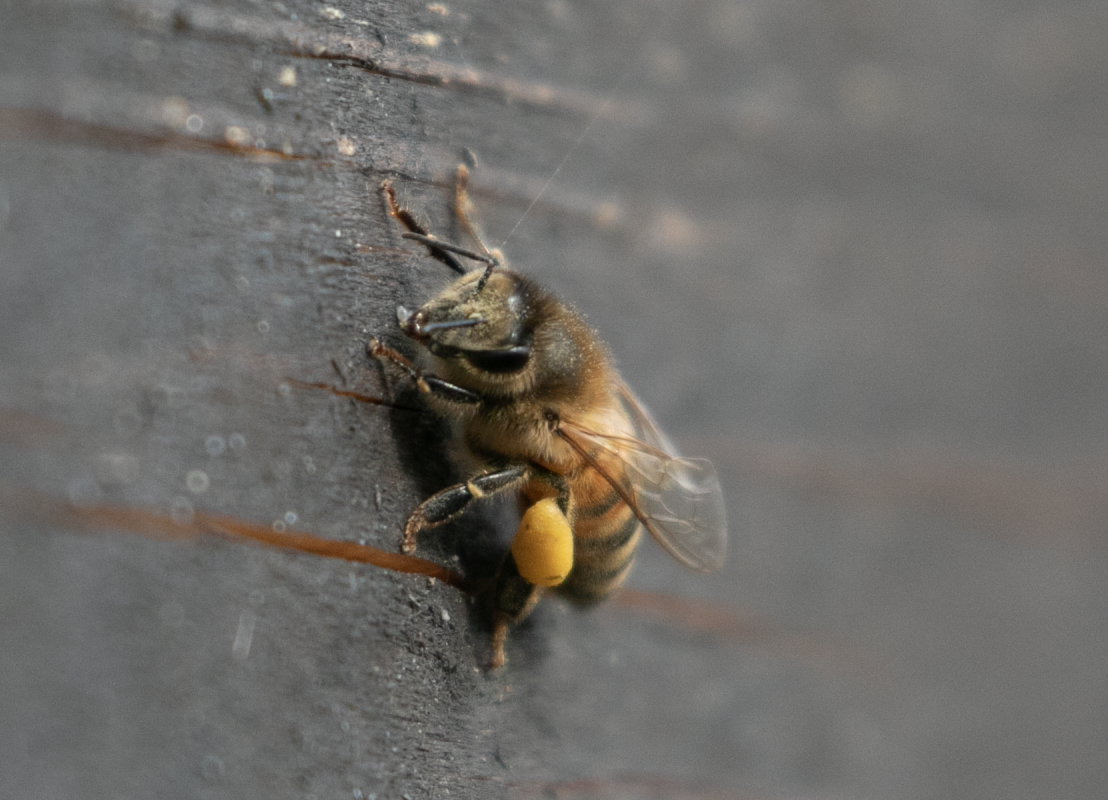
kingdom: Animalia
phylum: Arthropoda
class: Insecta
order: Hymenoptera
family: Apidae
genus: Apis
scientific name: Apis mellifera
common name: Honey bee
